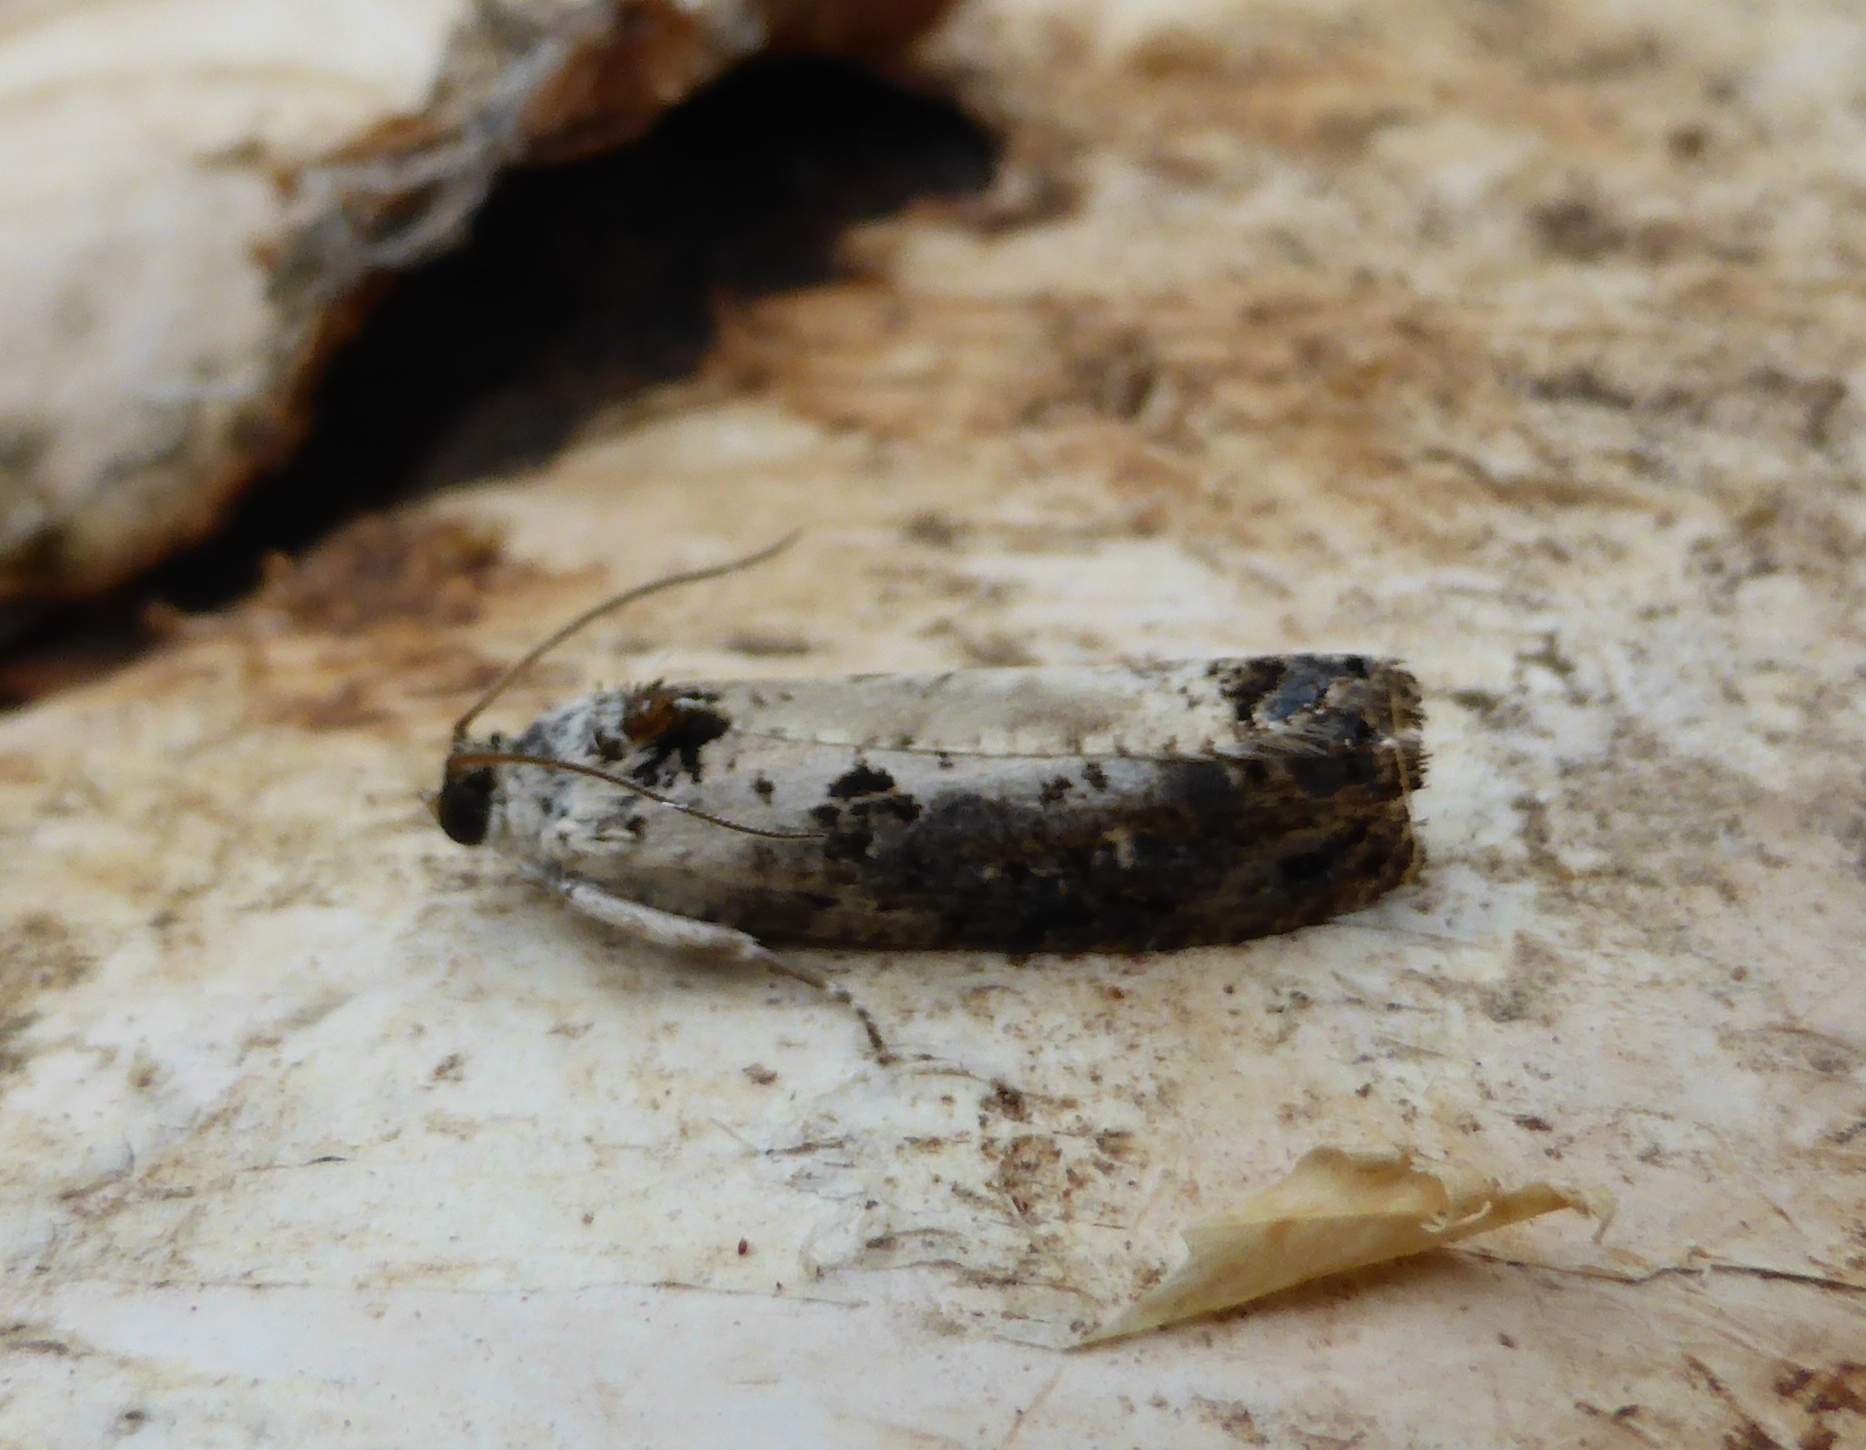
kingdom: Animalia
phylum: Arthropoda
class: Insecta
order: Lepidoptera
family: Tortricidae
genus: Hedya
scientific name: Hedya salicella
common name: Large tortricid moth
